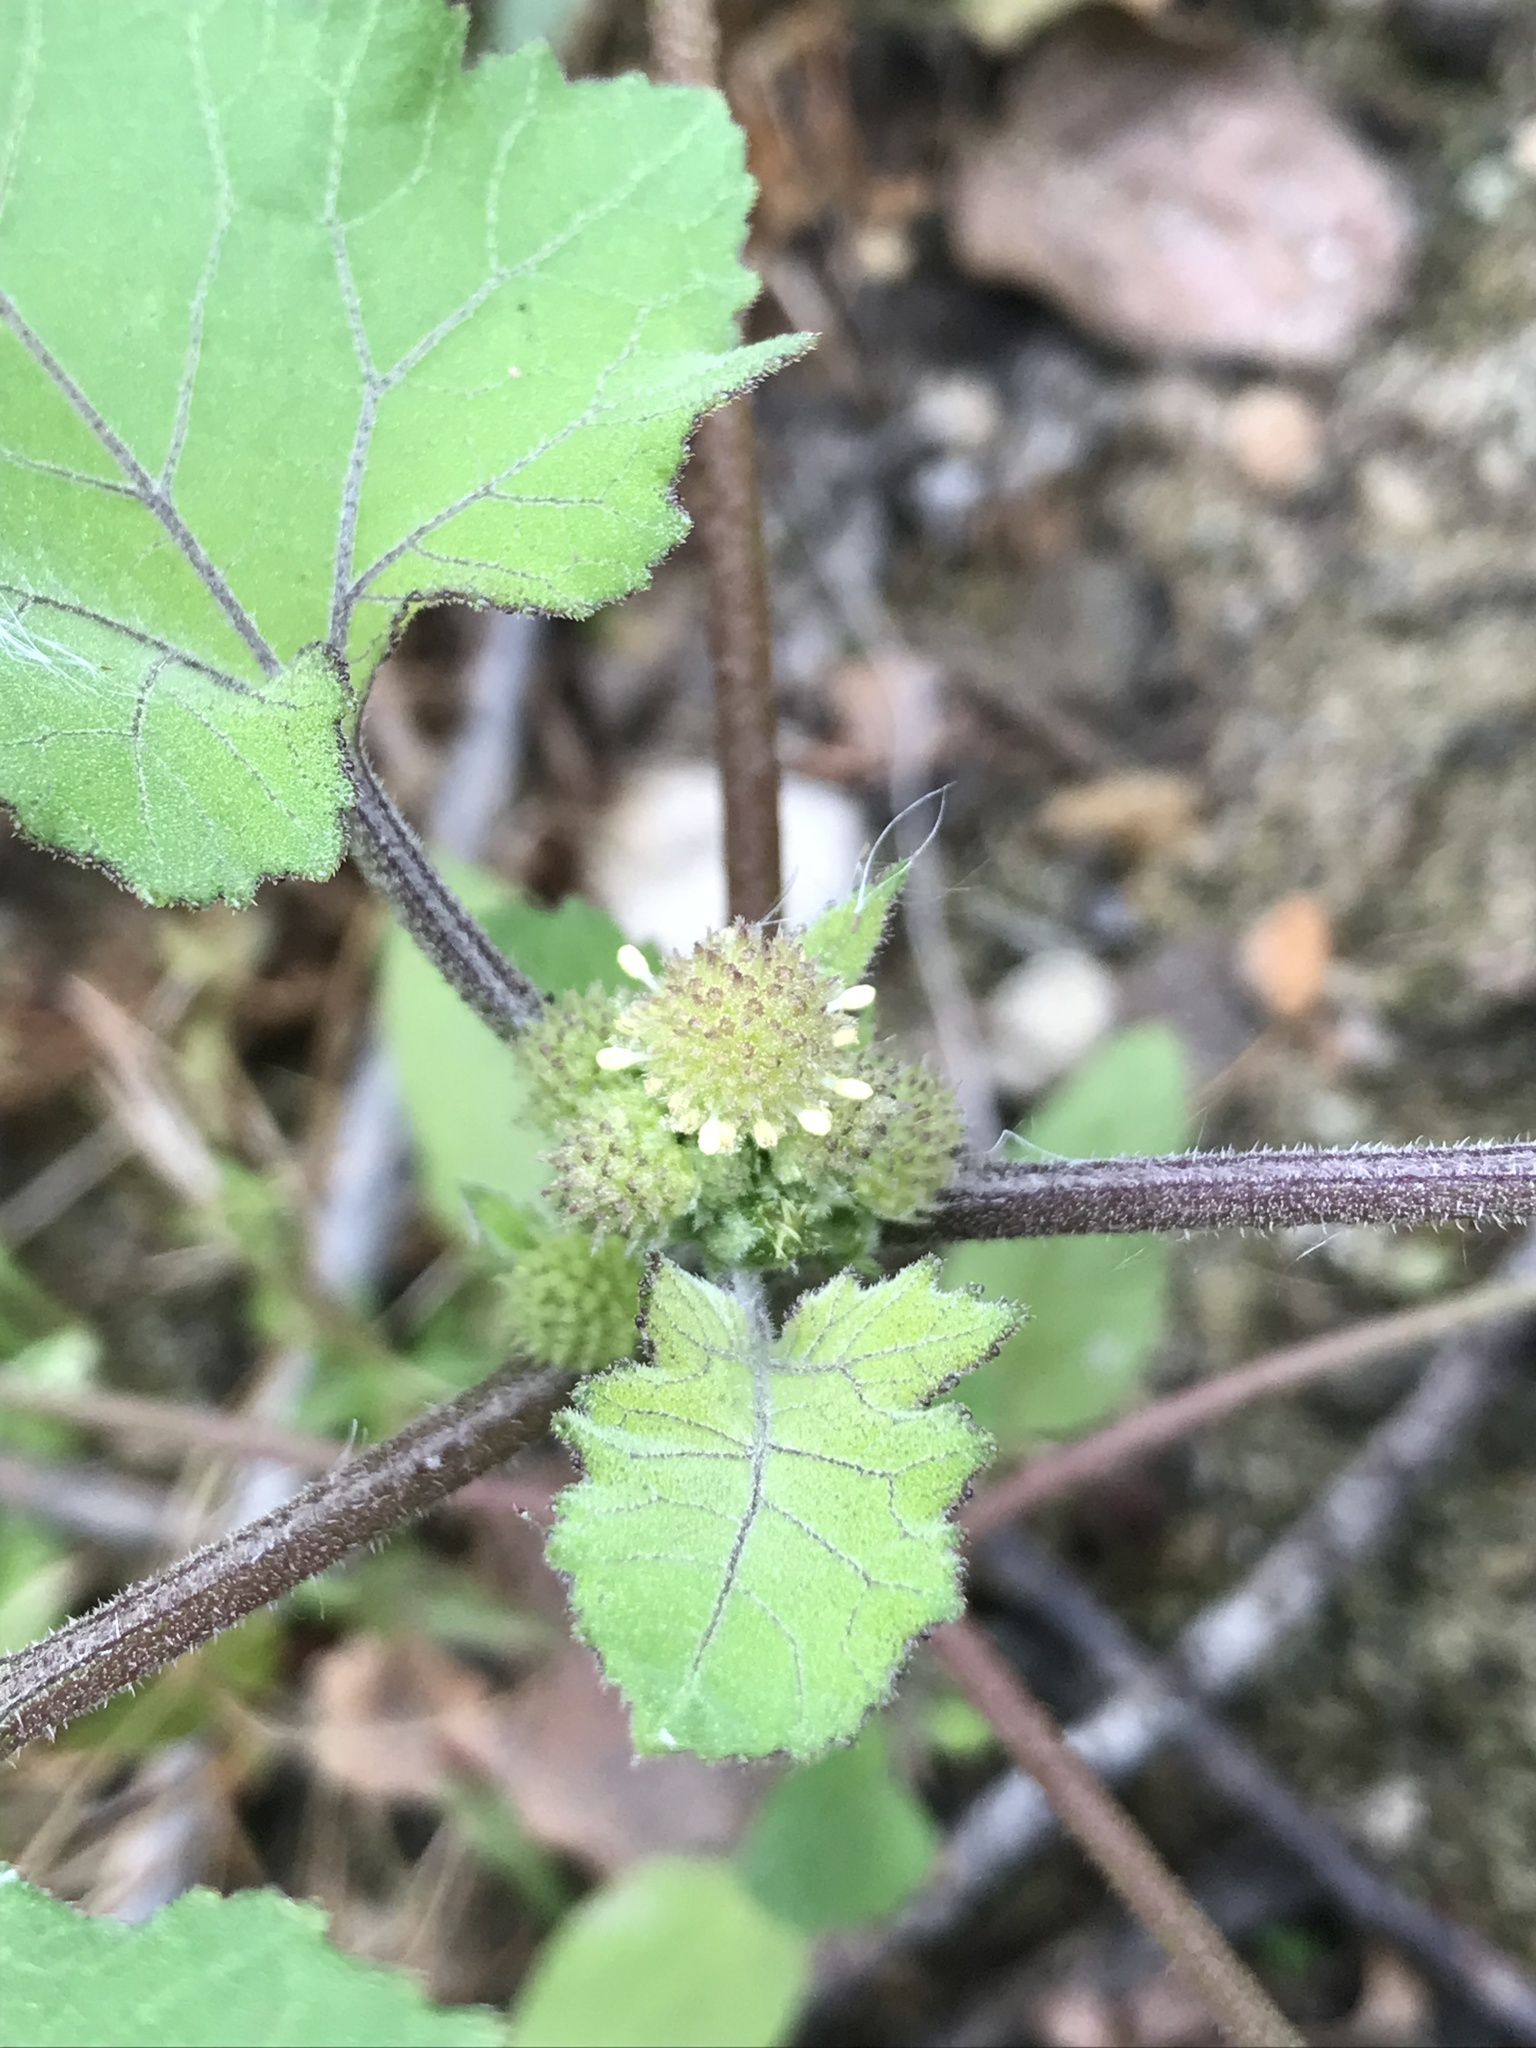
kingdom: Plantae
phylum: Tracheophyta
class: Magnoliopsida
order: Asterales
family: Asteraceae
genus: Xanthium
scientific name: Xanthium strumarium
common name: Rough cocklebur
